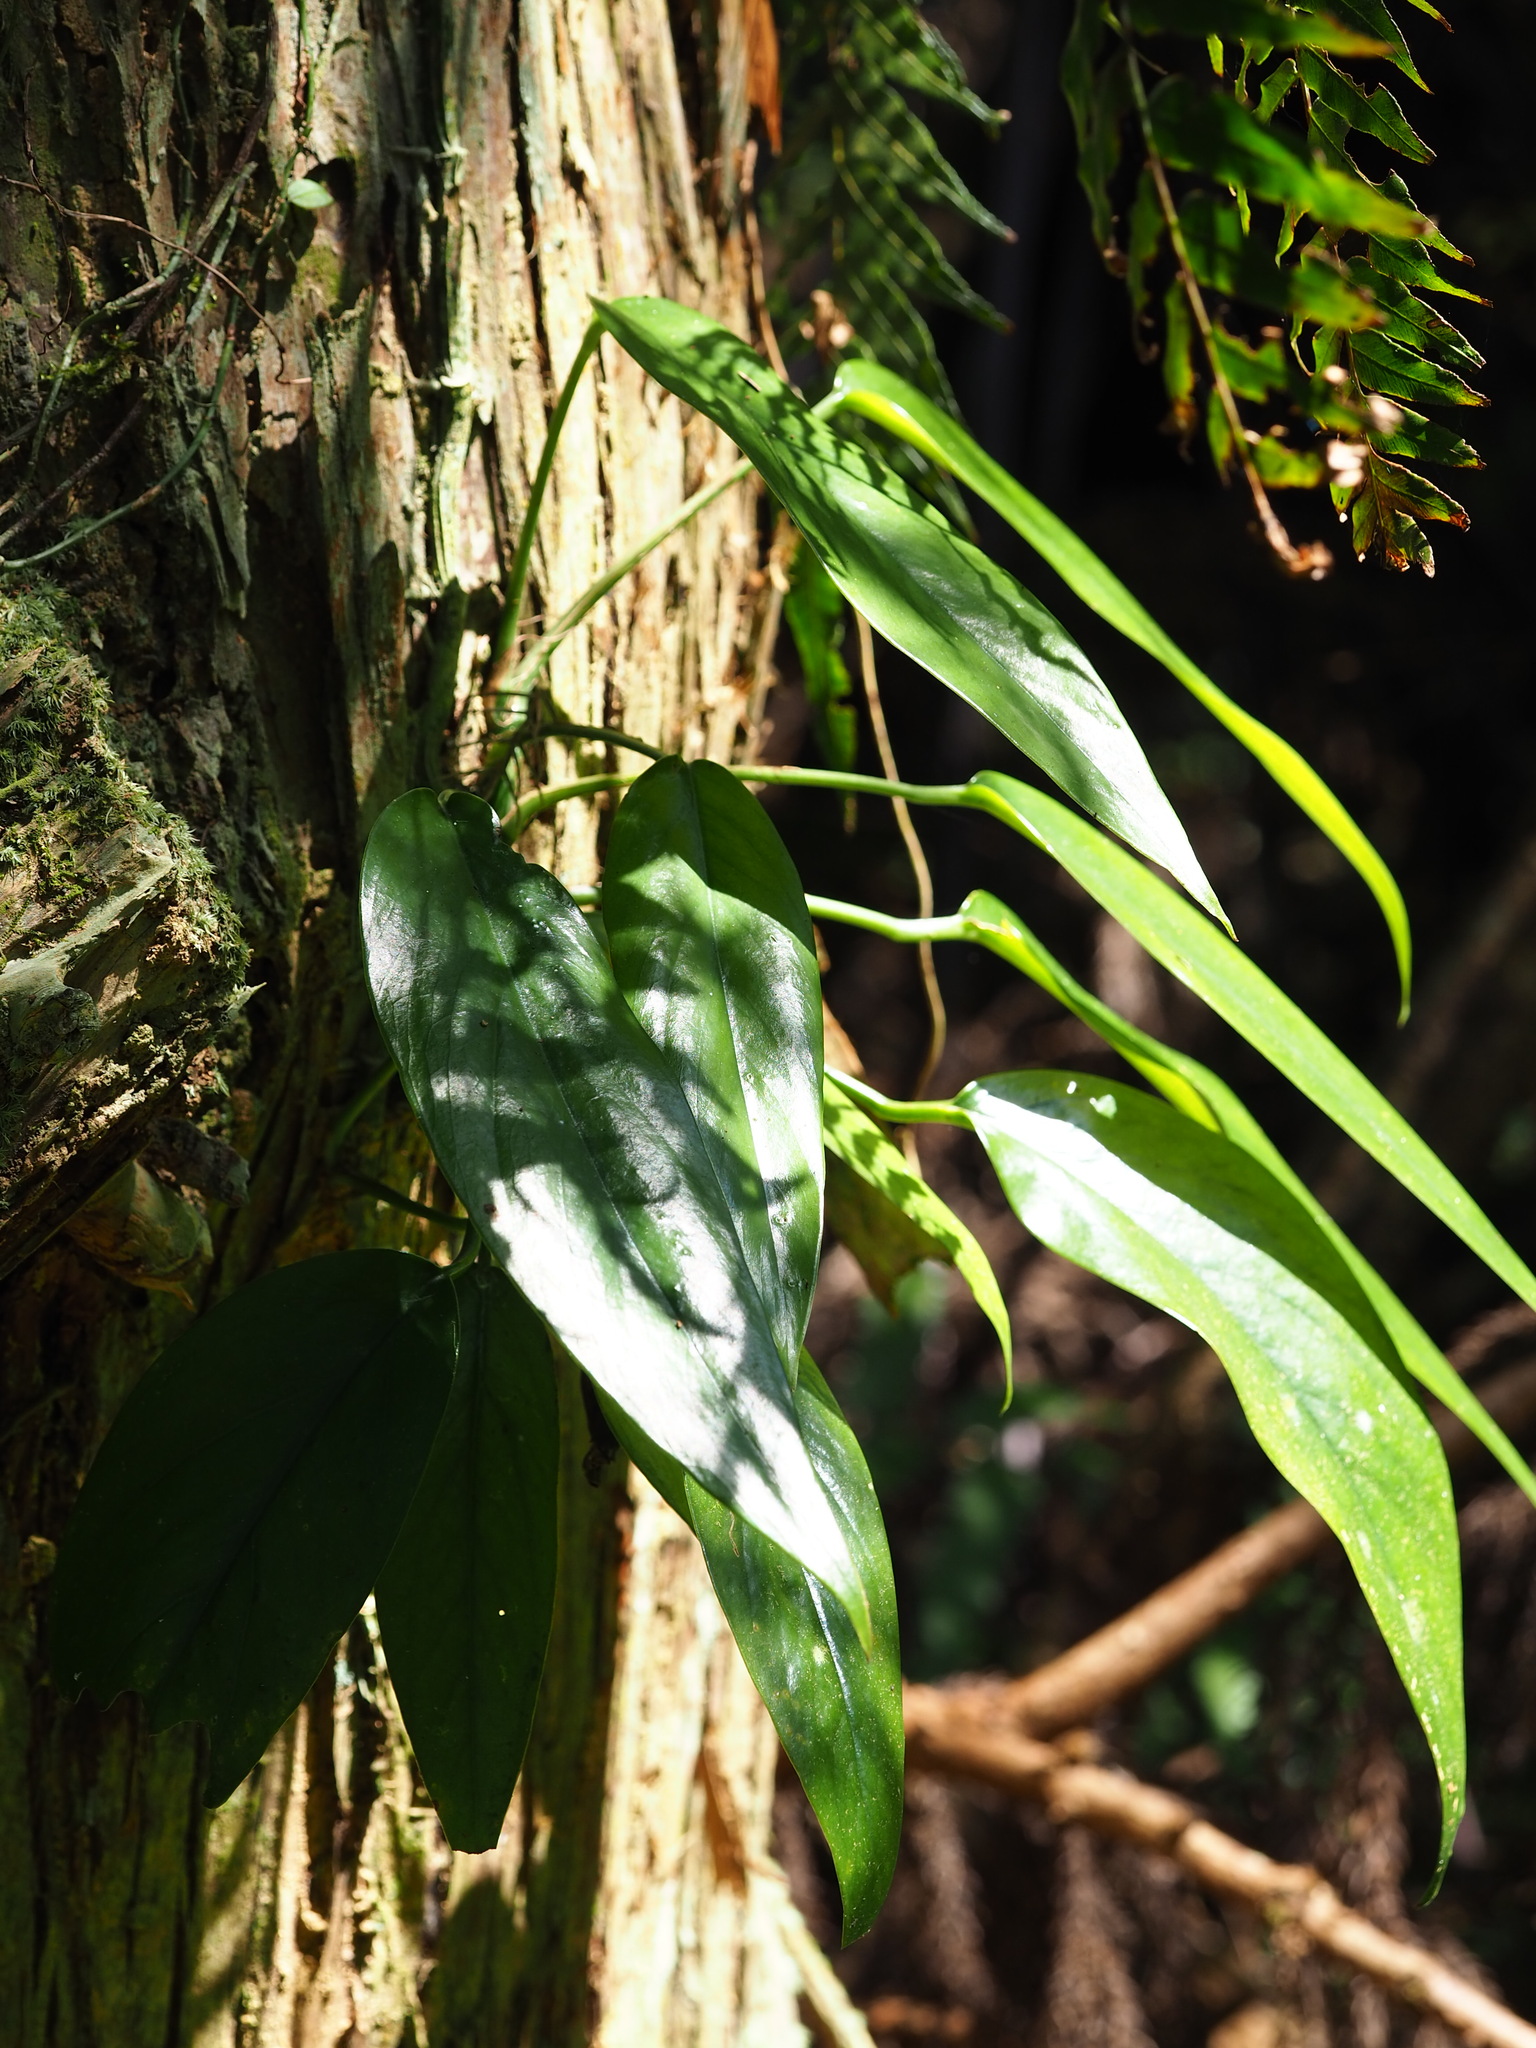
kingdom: Plantae
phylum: Tracheophyta
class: Liliopsida
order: Alismatales
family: Araceae
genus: Epipremnum
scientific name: Epipremnum pinnatum
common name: Centipede tongavine
